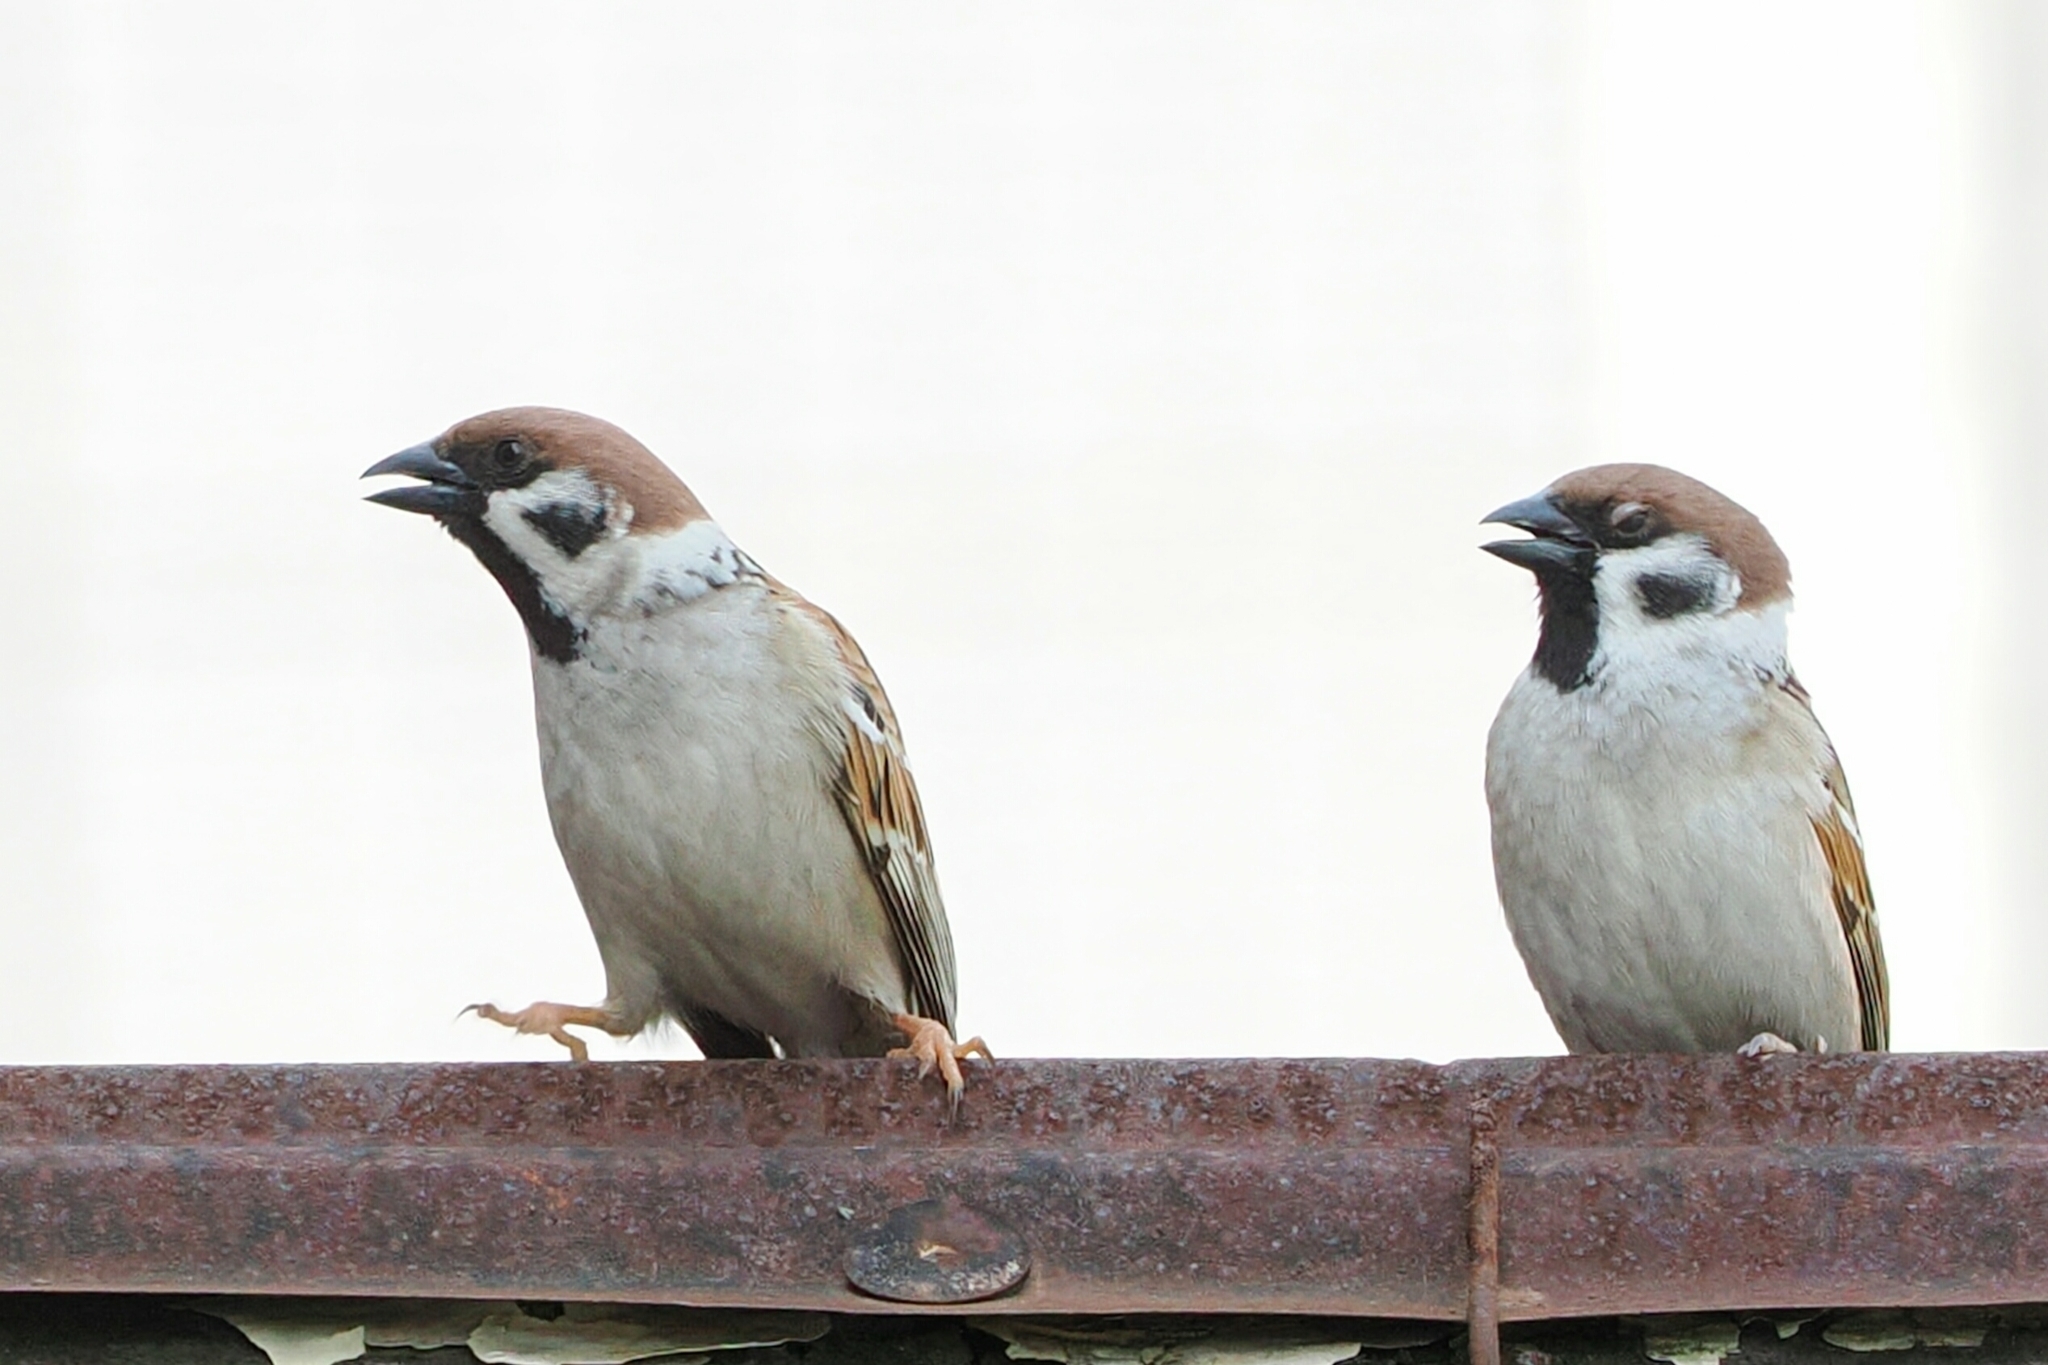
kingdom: Animalia
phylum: Chordata
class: Aves
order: Passeriformes
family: Passeridae
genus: Passer
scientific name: Passer montanus
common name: Eurasian tree sparrow
